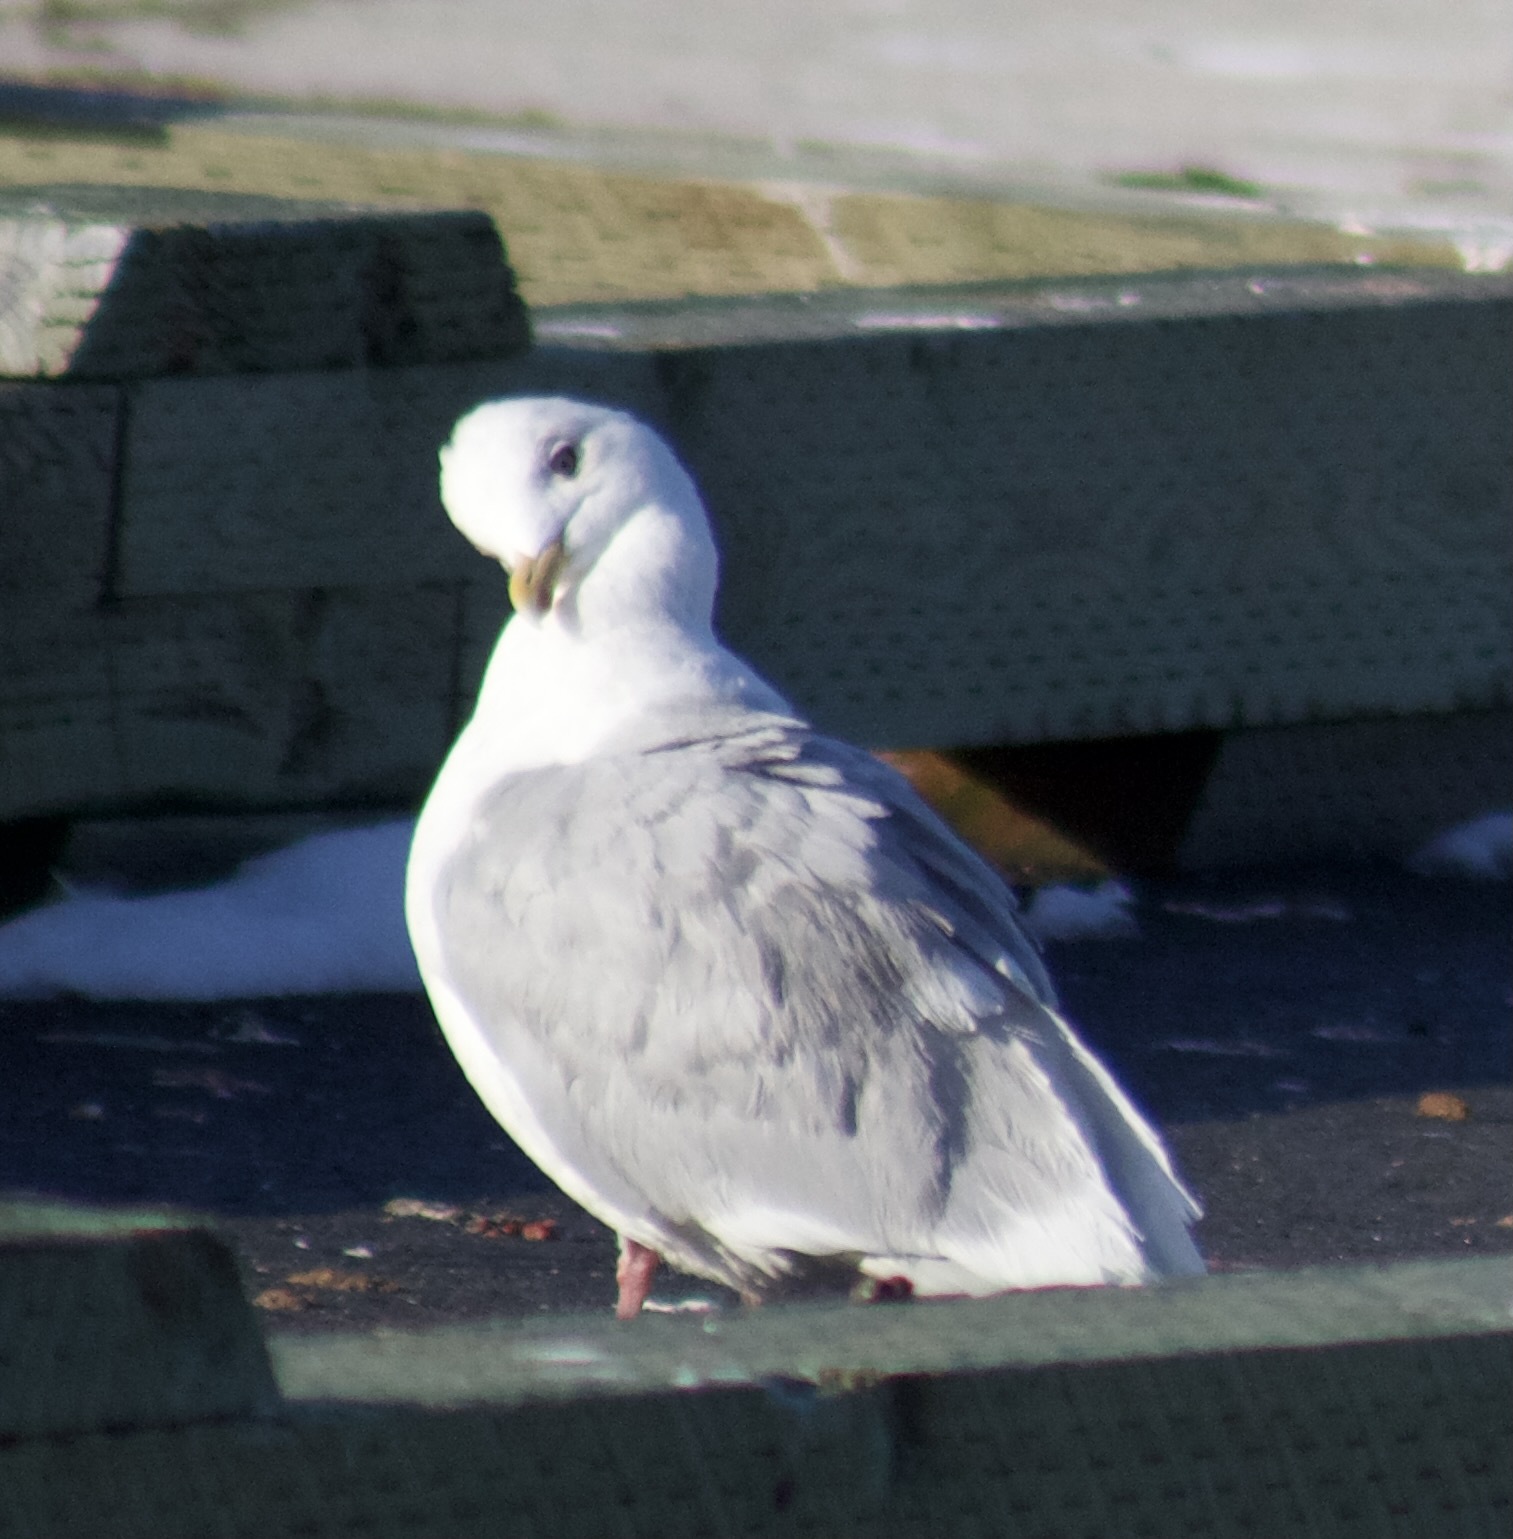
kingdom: Animalia
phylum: Chordata
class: Aves
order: Charadriiformes
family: Laridae
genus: Larus
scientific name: Larus glaucoides
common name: Iceland gull
